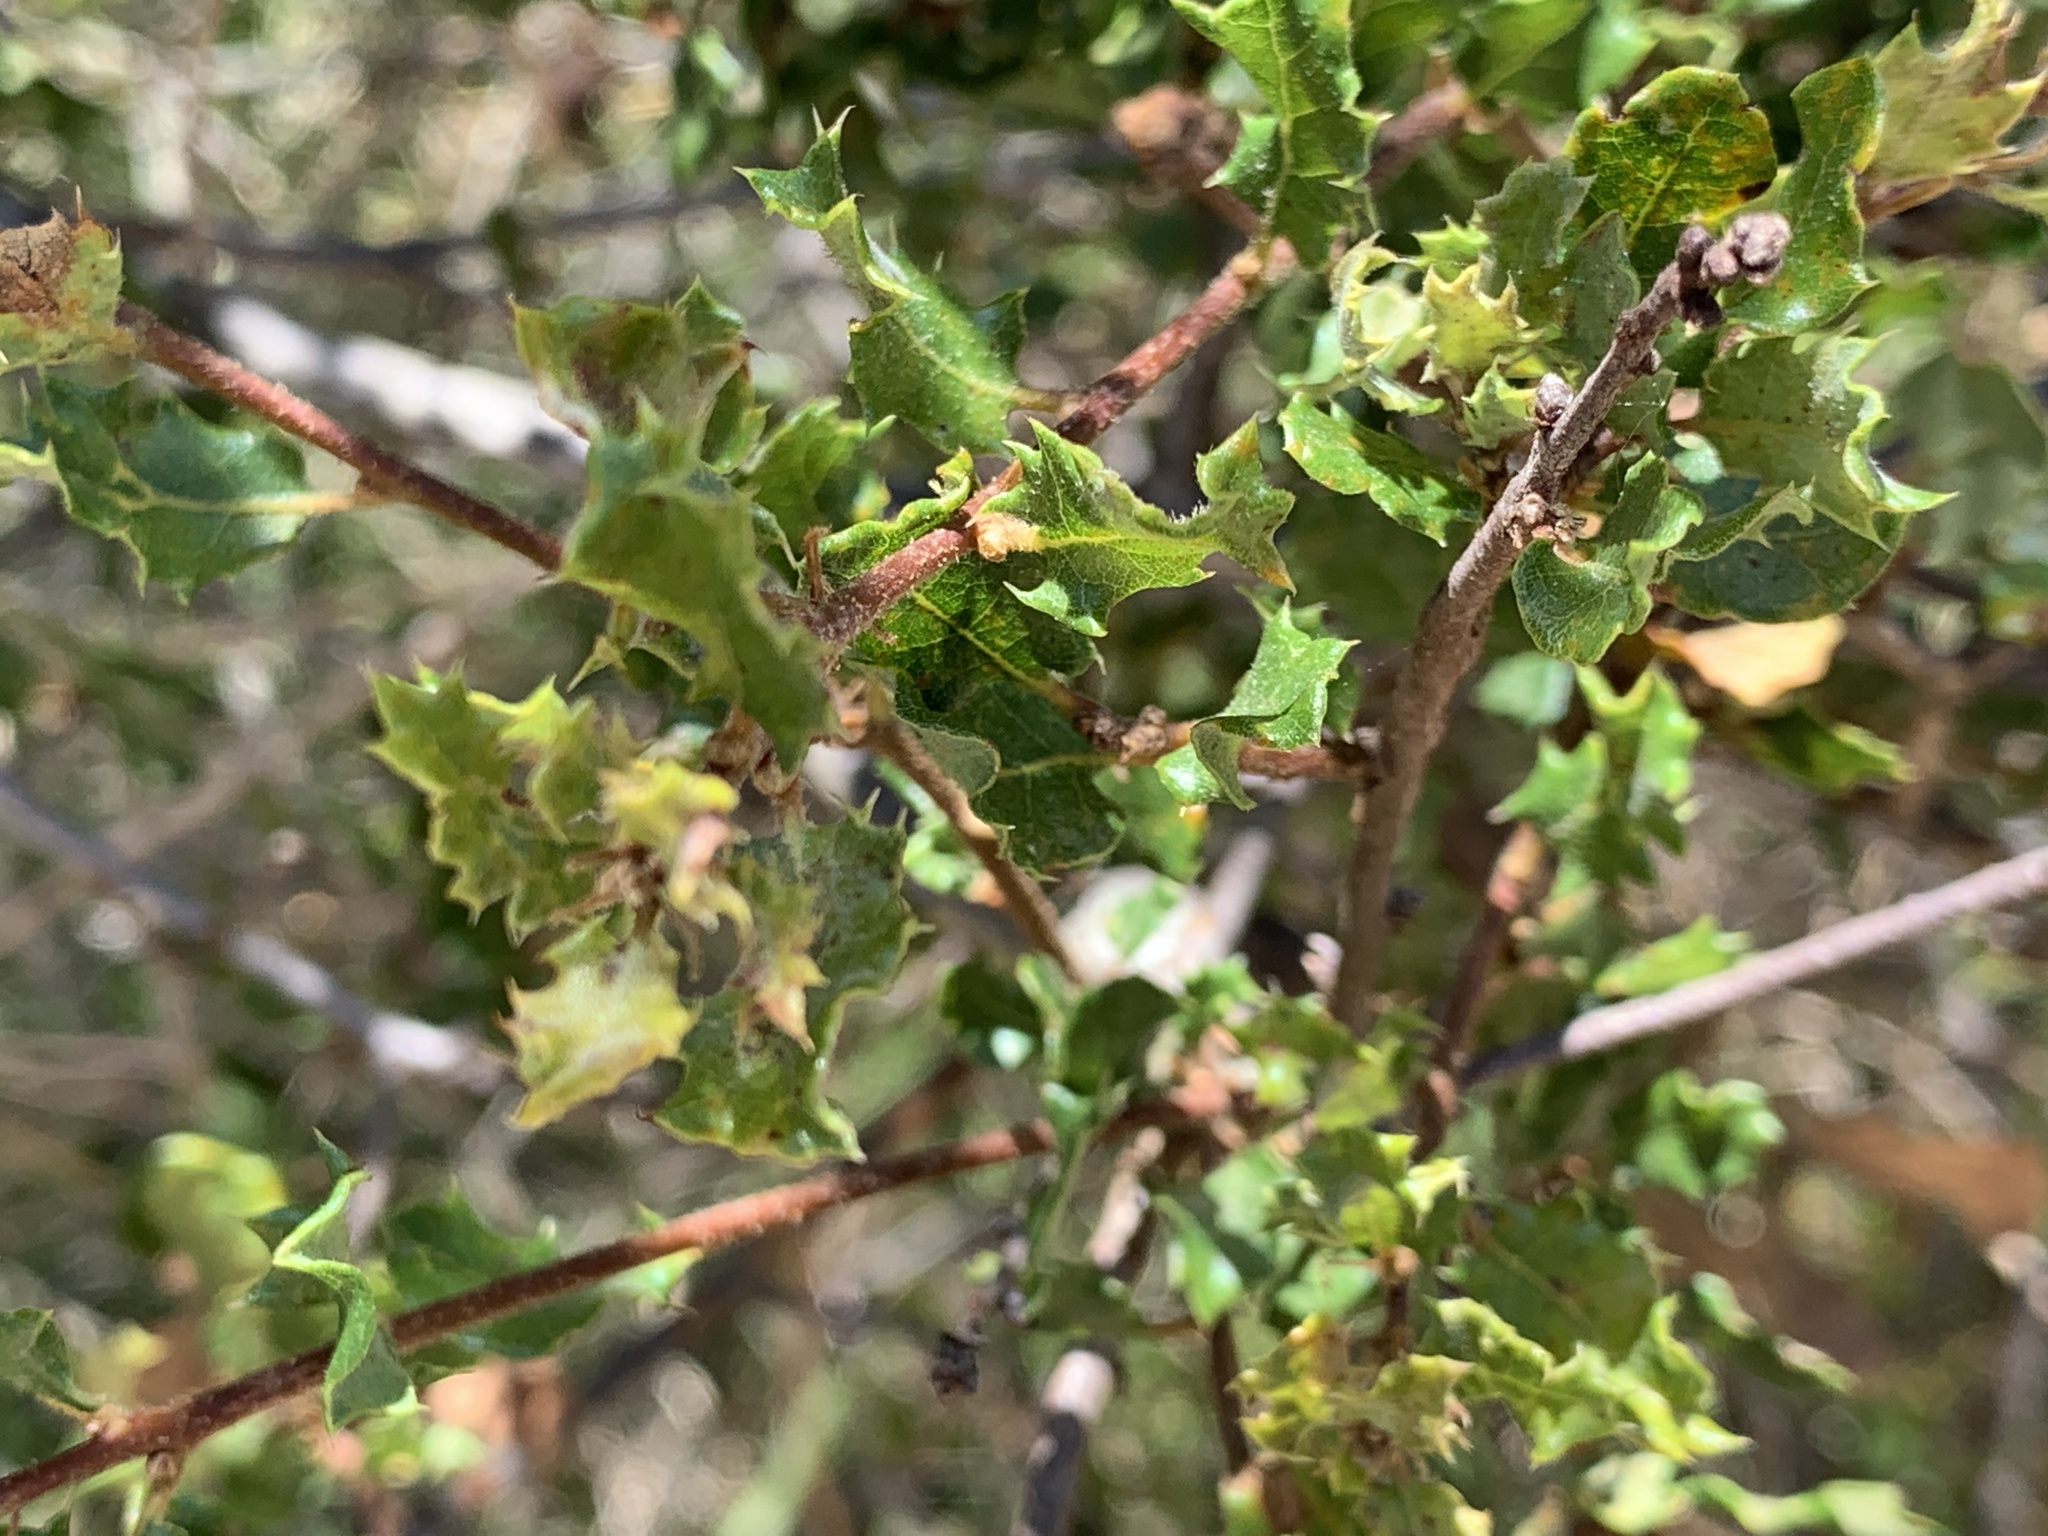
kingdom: Plantae
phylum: Tracheophyta
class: Magnoliopsida
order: Fagales
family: Fagaceae
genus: Quercus
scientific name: Quercus dumosa
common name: Coastal sage scrub oak
